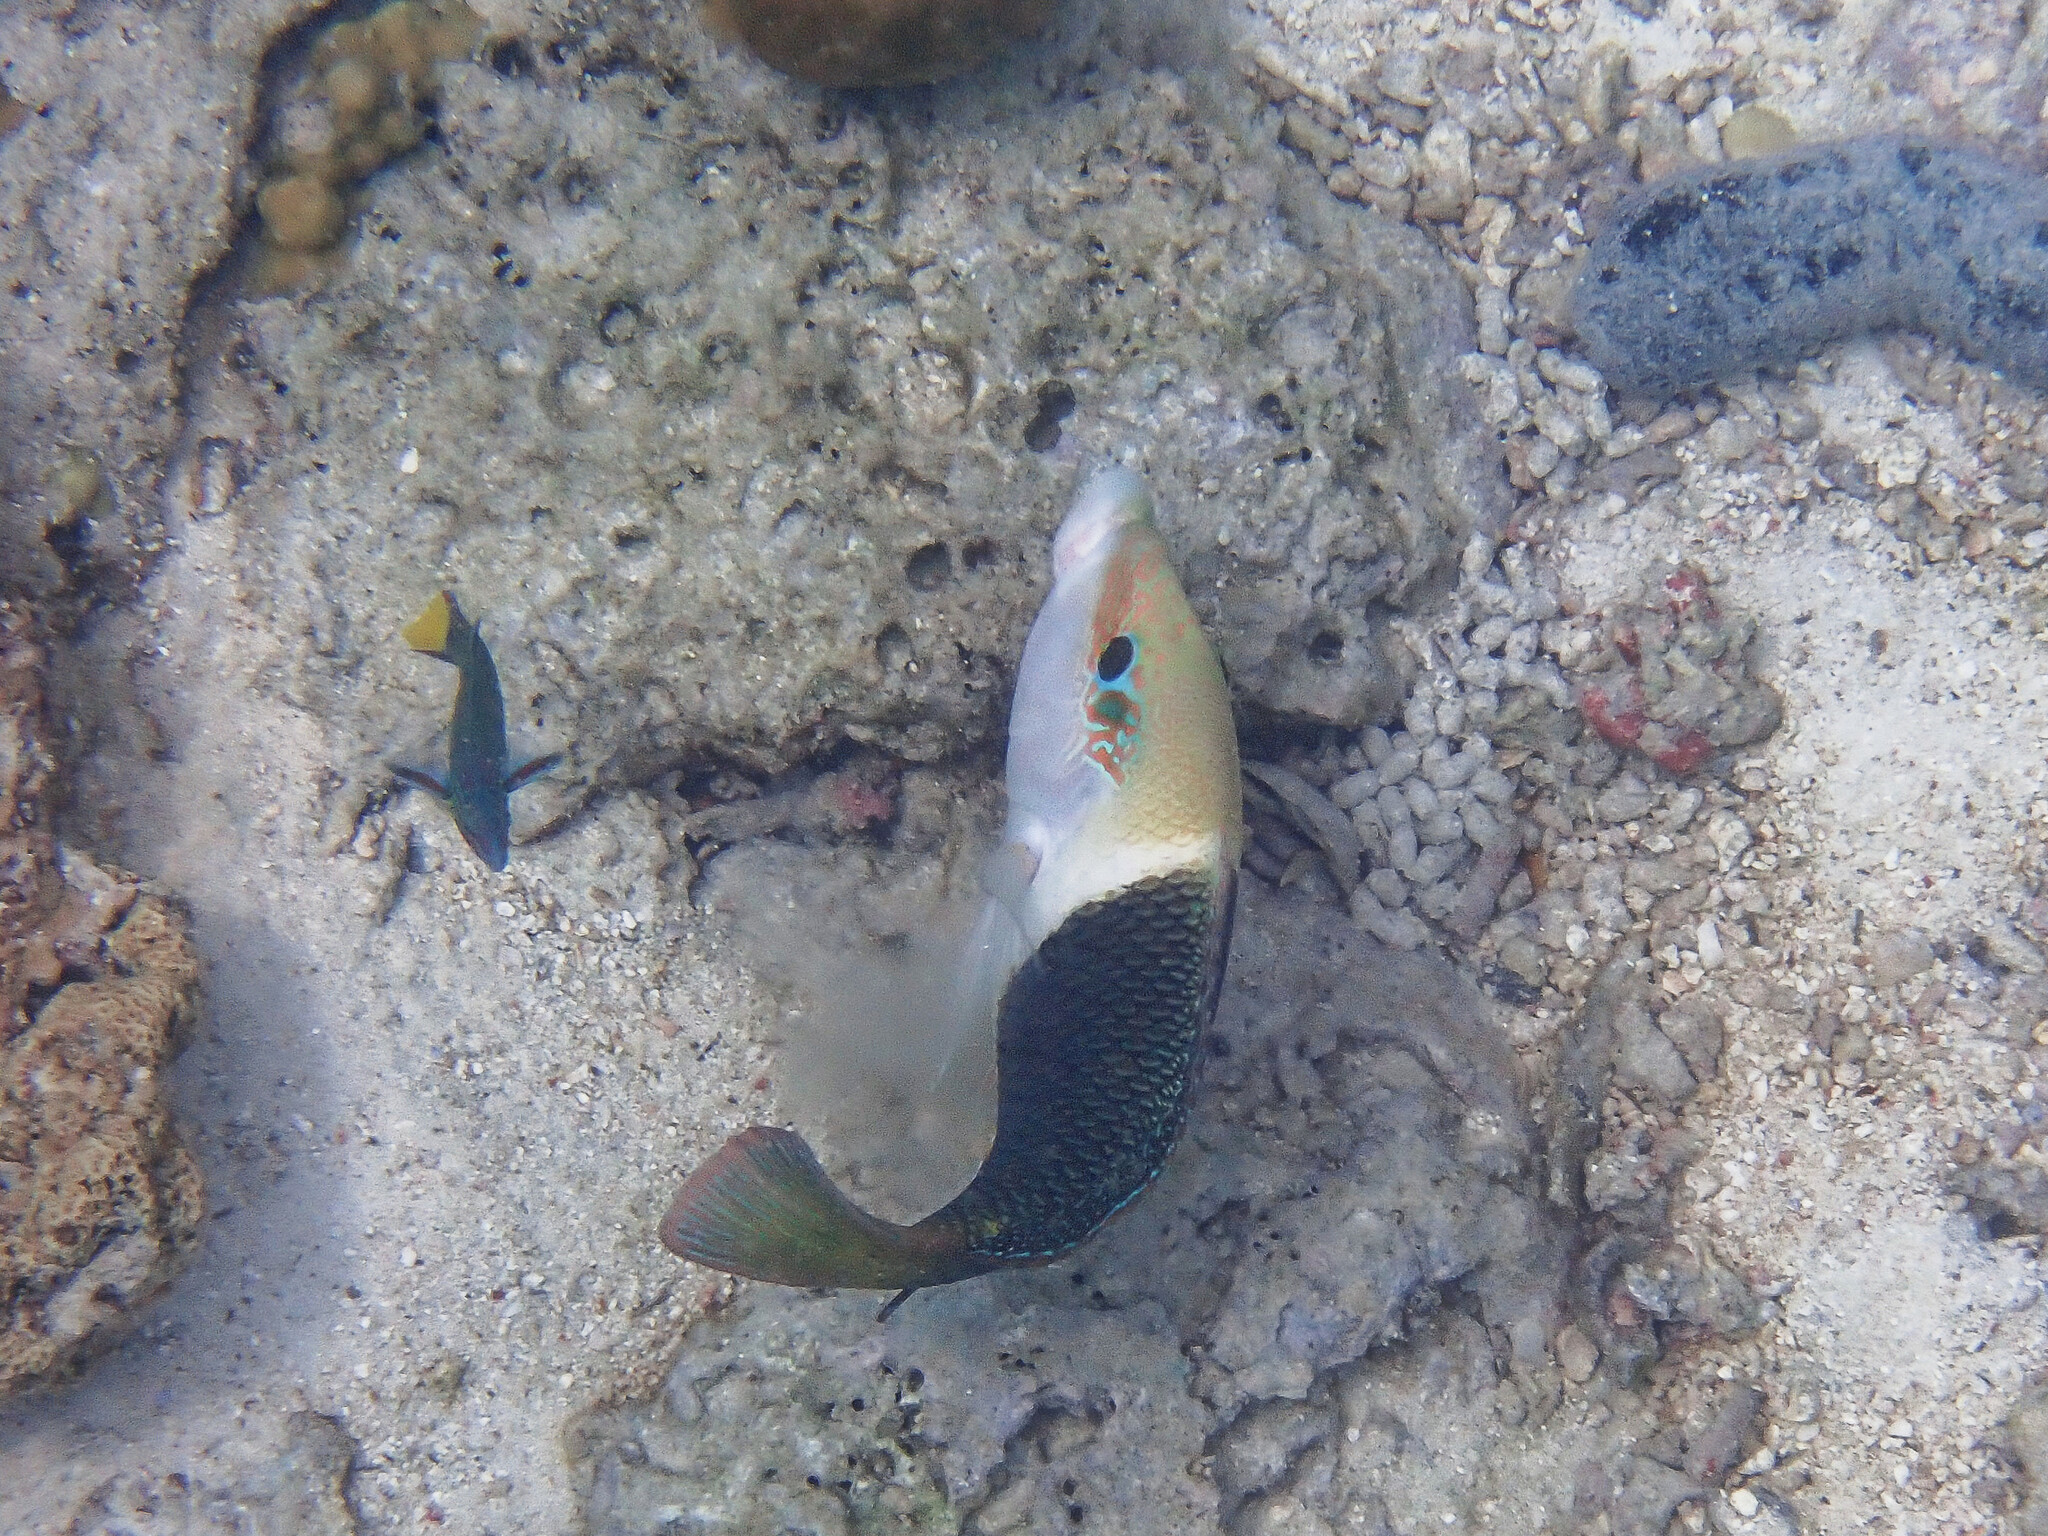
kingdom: Animalia
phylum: Chordata
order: Perciformes
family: Labridae
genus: Hemigymnus
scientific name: Hemigymnus melapterus
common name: Blackeye thicklip
